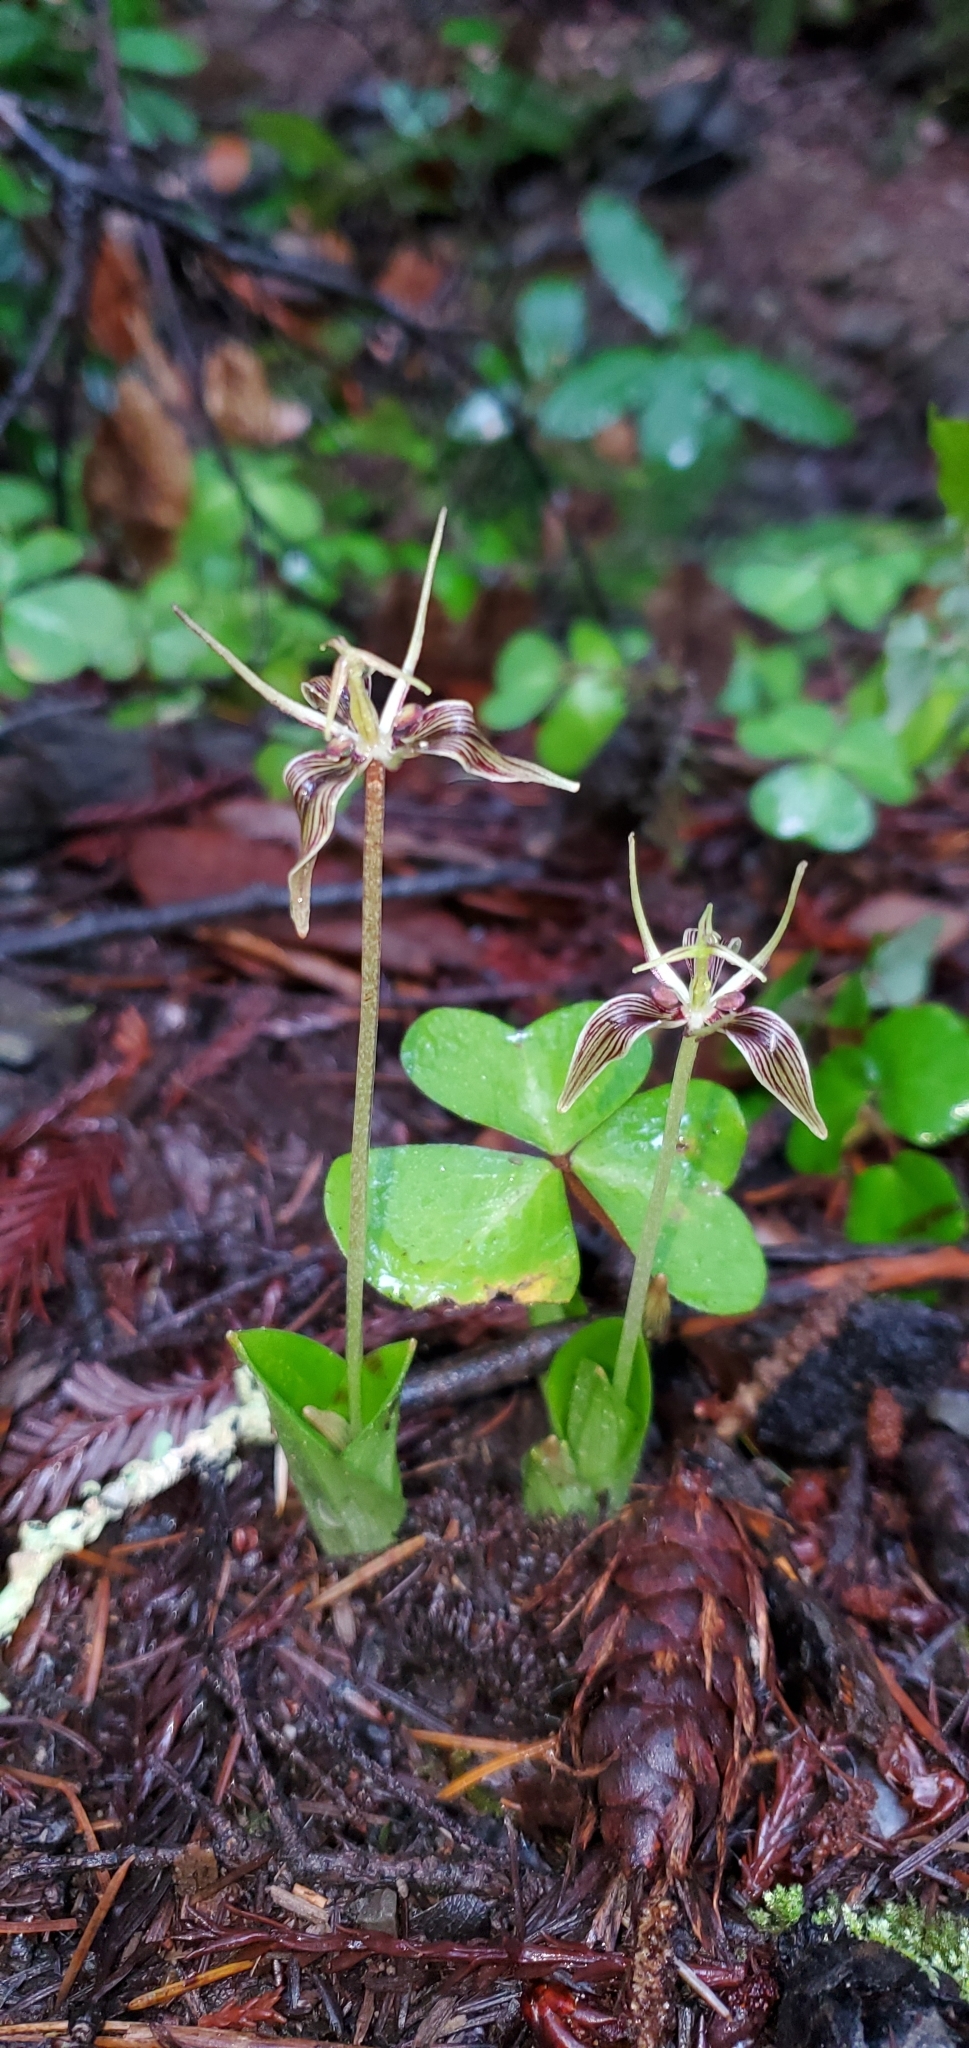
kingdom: Plantae
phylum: Tracheophyta
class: Liliopsida
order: Liliales
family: Liliaceae
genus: Scoliopus
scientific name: Scoliopus bigelovii
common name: Foetid adder's-tongue
